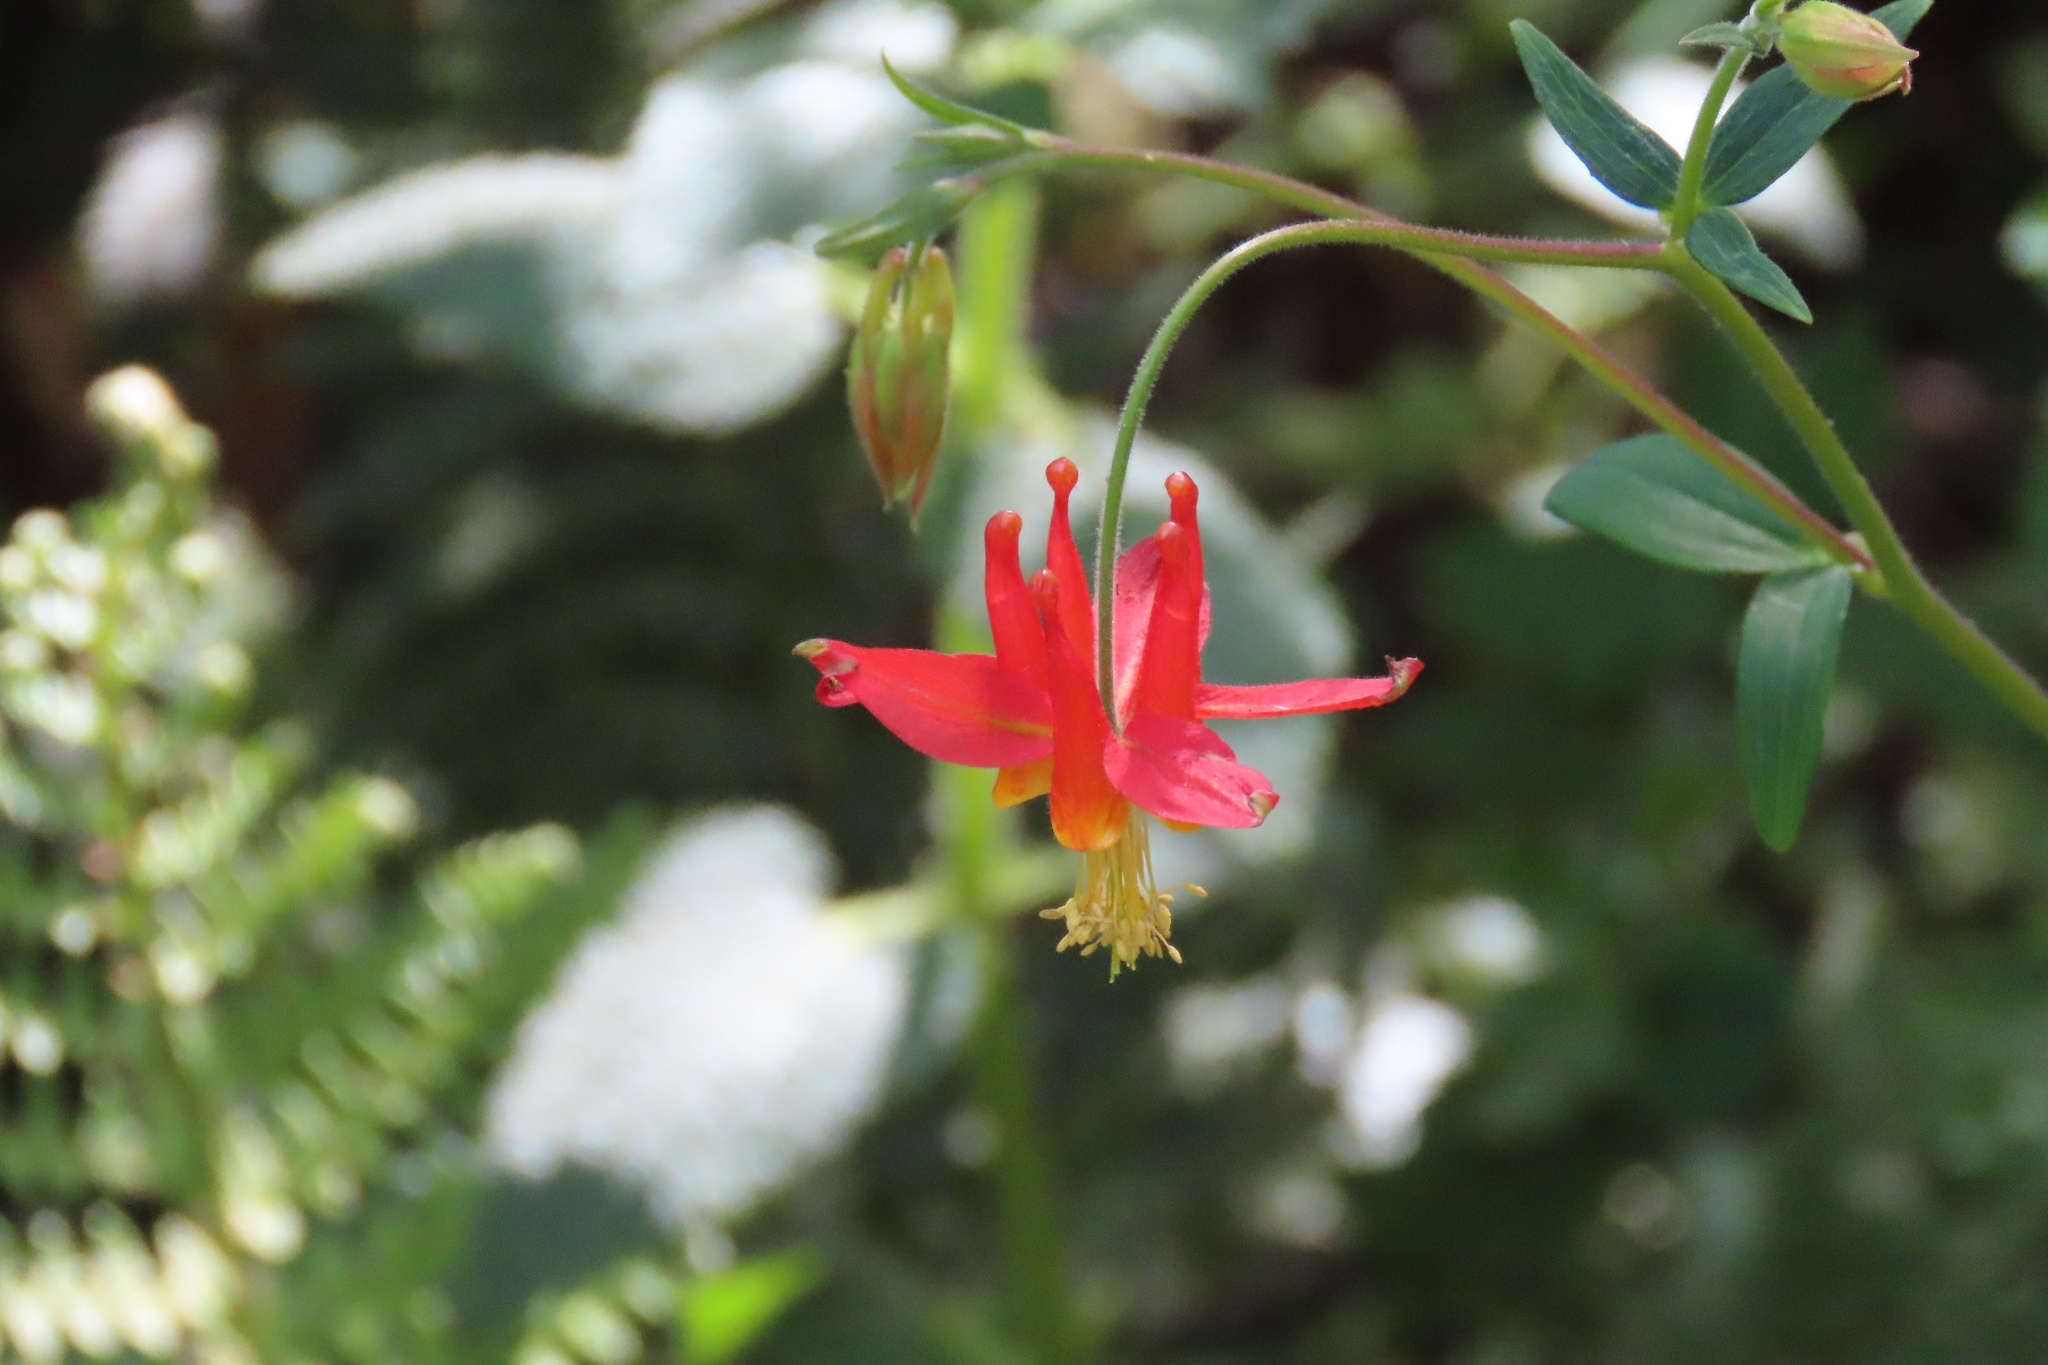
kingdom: Plantae
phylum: Tracheophyta
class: Magnoliopsida
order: Ranunculales
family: Ranunculaceae
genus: Aquilegia
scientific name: Aquilegia formosa
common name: Sitka columbine
